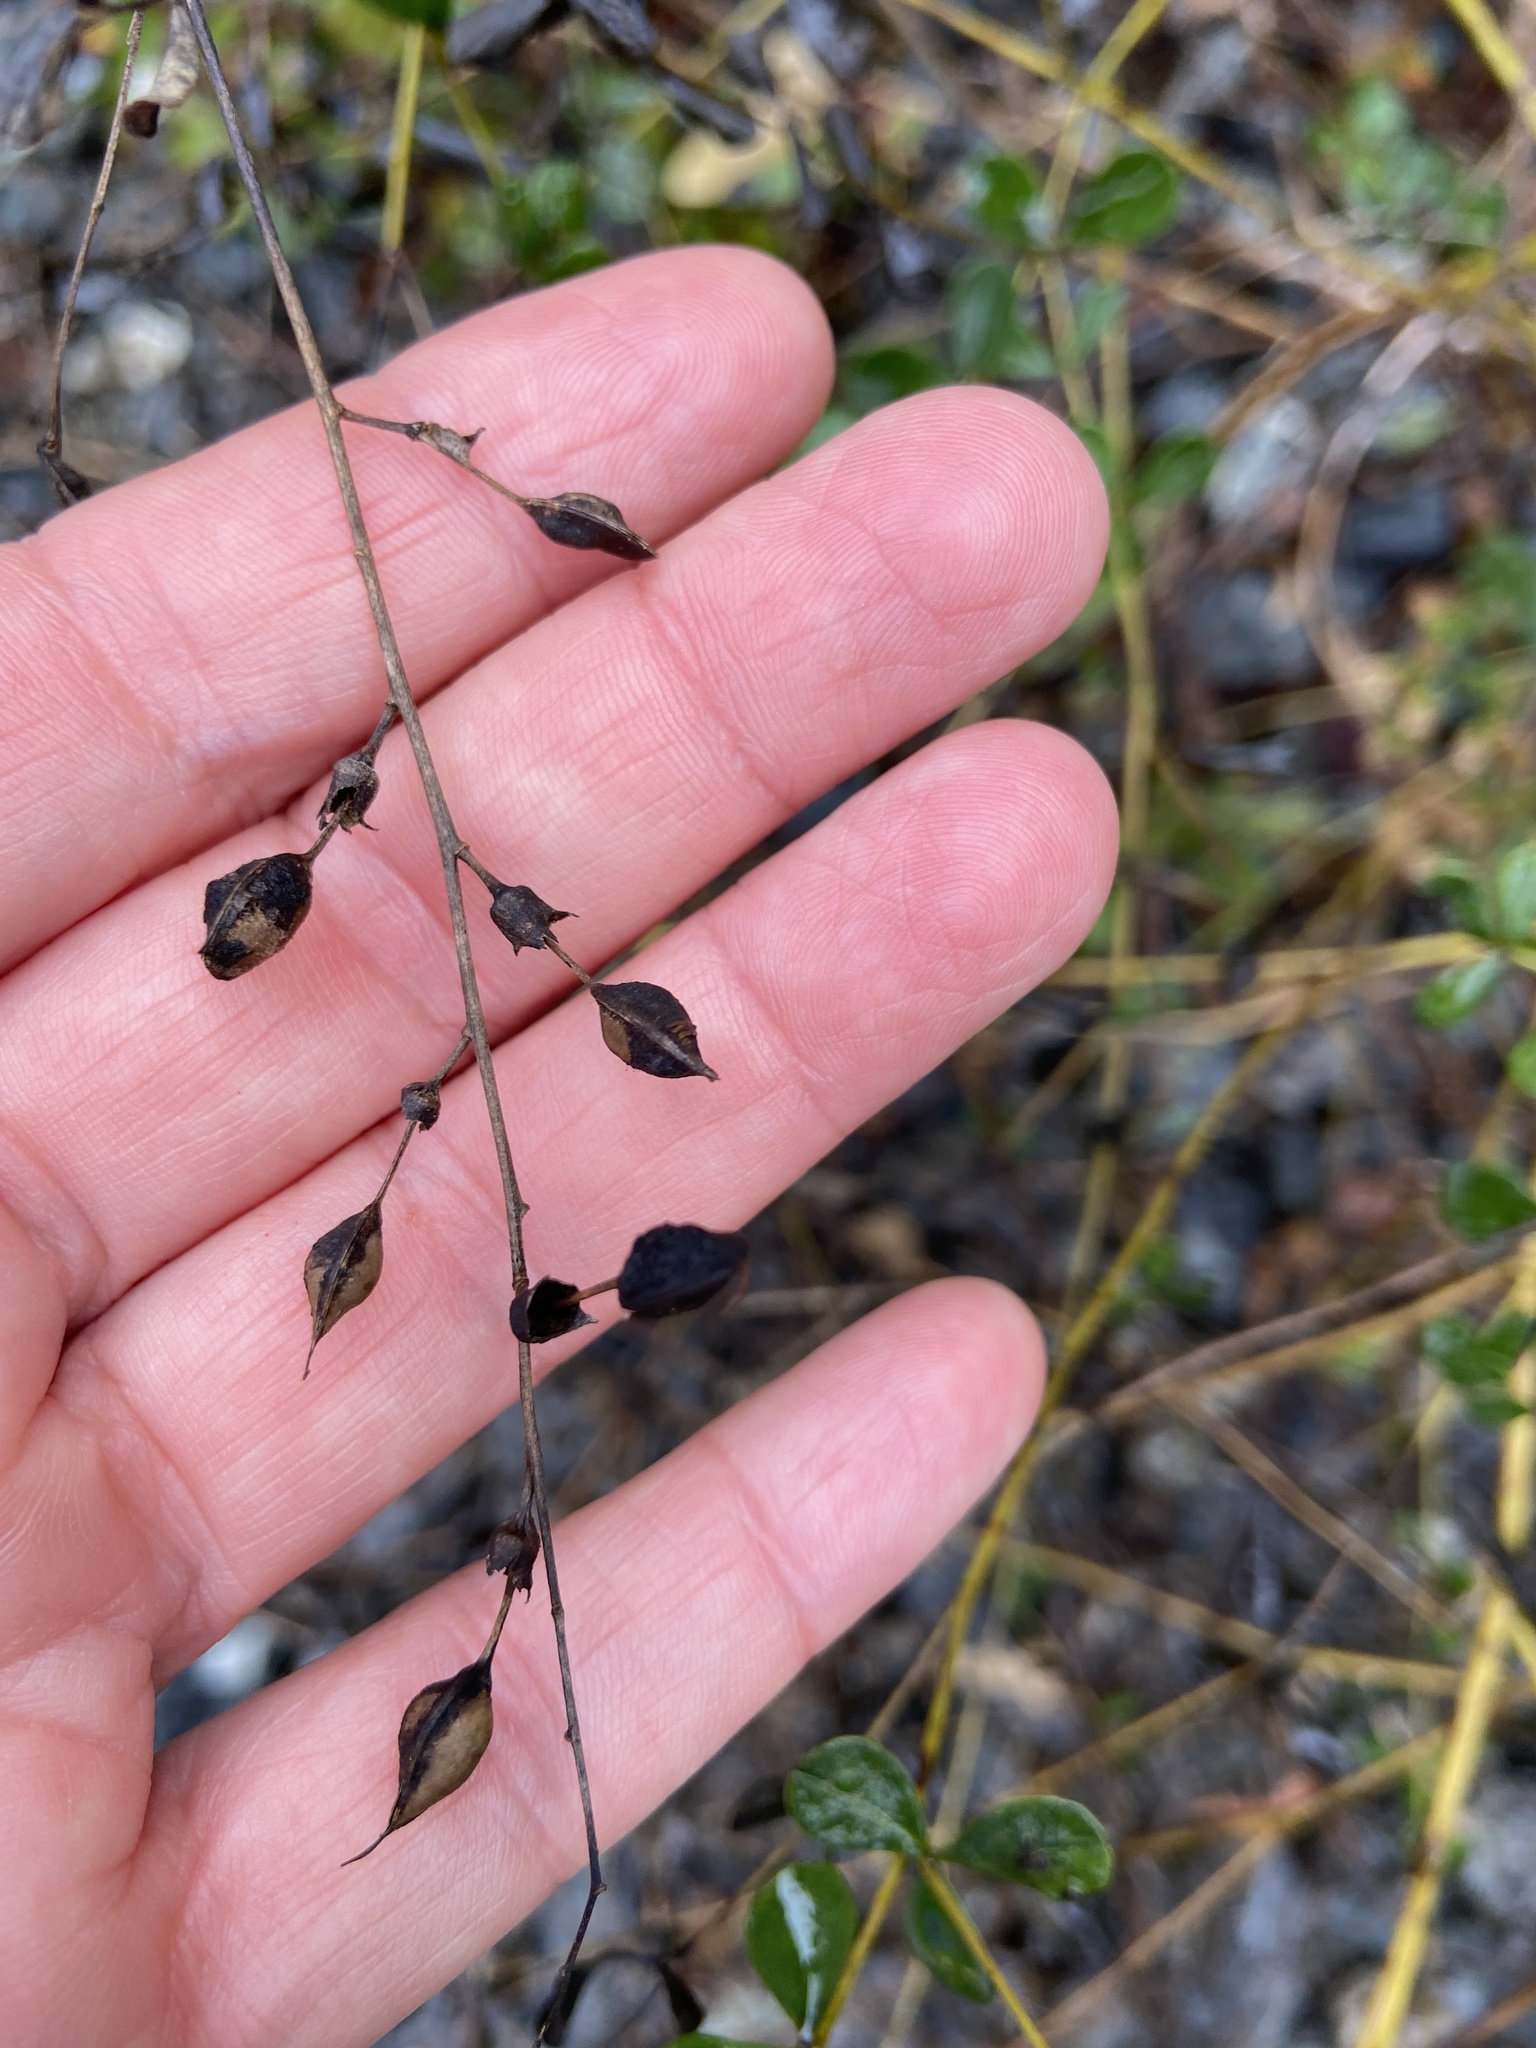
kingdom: Plantae
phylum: Tracheophyta
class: Magnoliopsida
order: Fabales
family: Fabaceae
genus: Baptisia
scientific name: Baptisia tinctoria
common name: Wild indigo
